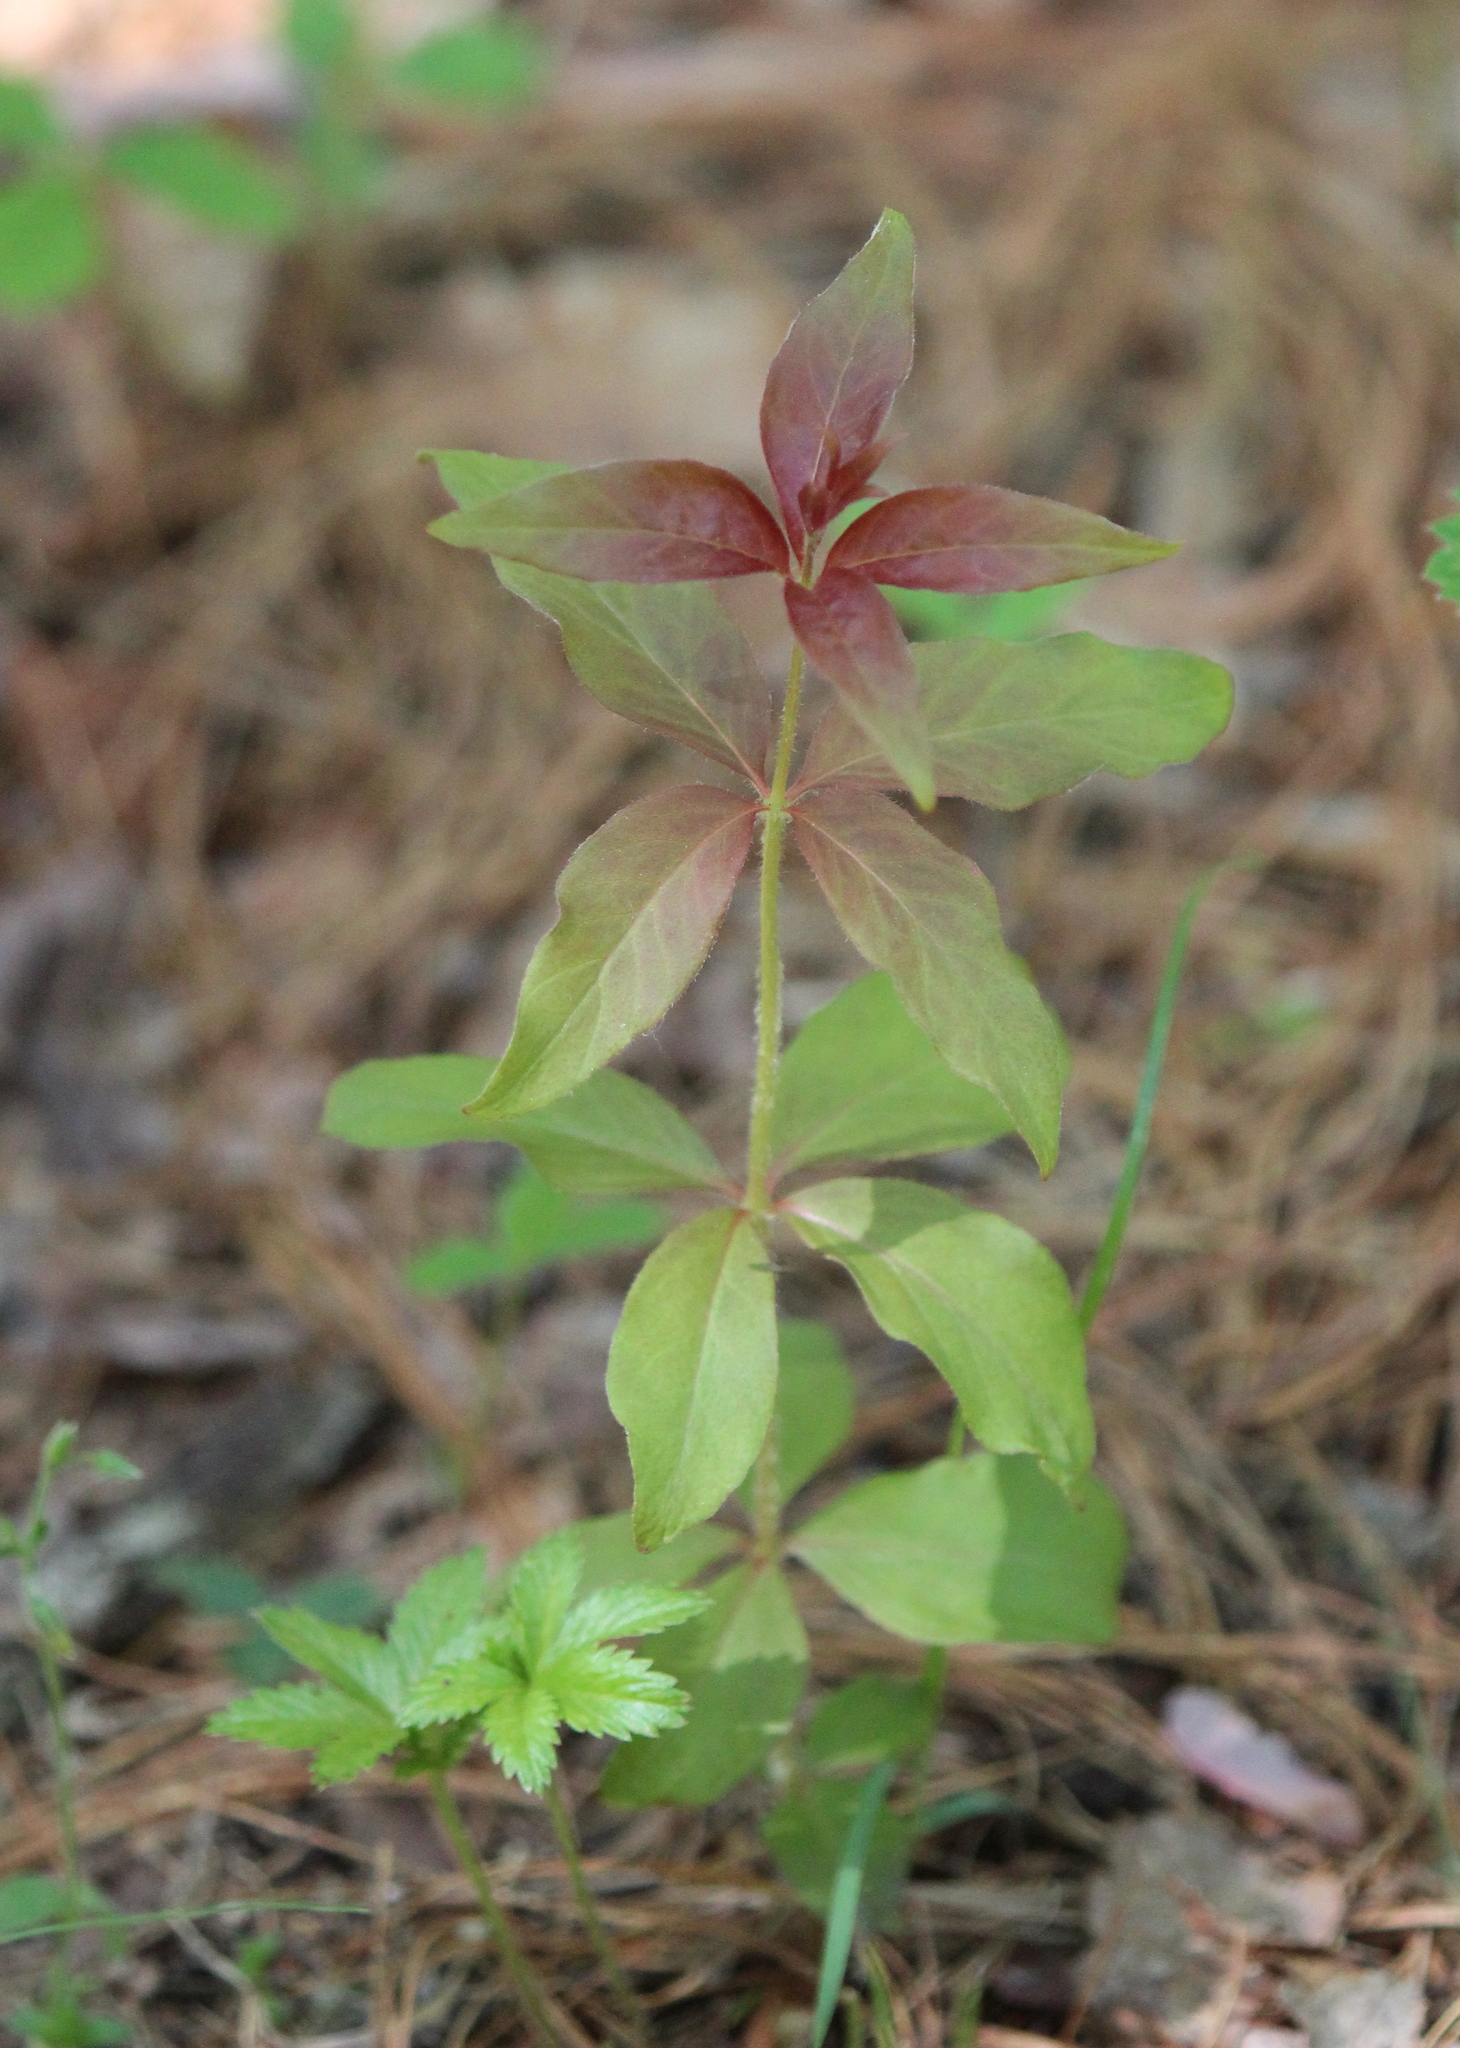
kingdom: Plantae
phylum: Tracheophyta
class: Magnoliopsida
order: Ericales
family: Primulaceae
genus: Lysimachia
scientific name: Lysimachia quadrifolia
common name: Whorled loosestrife
